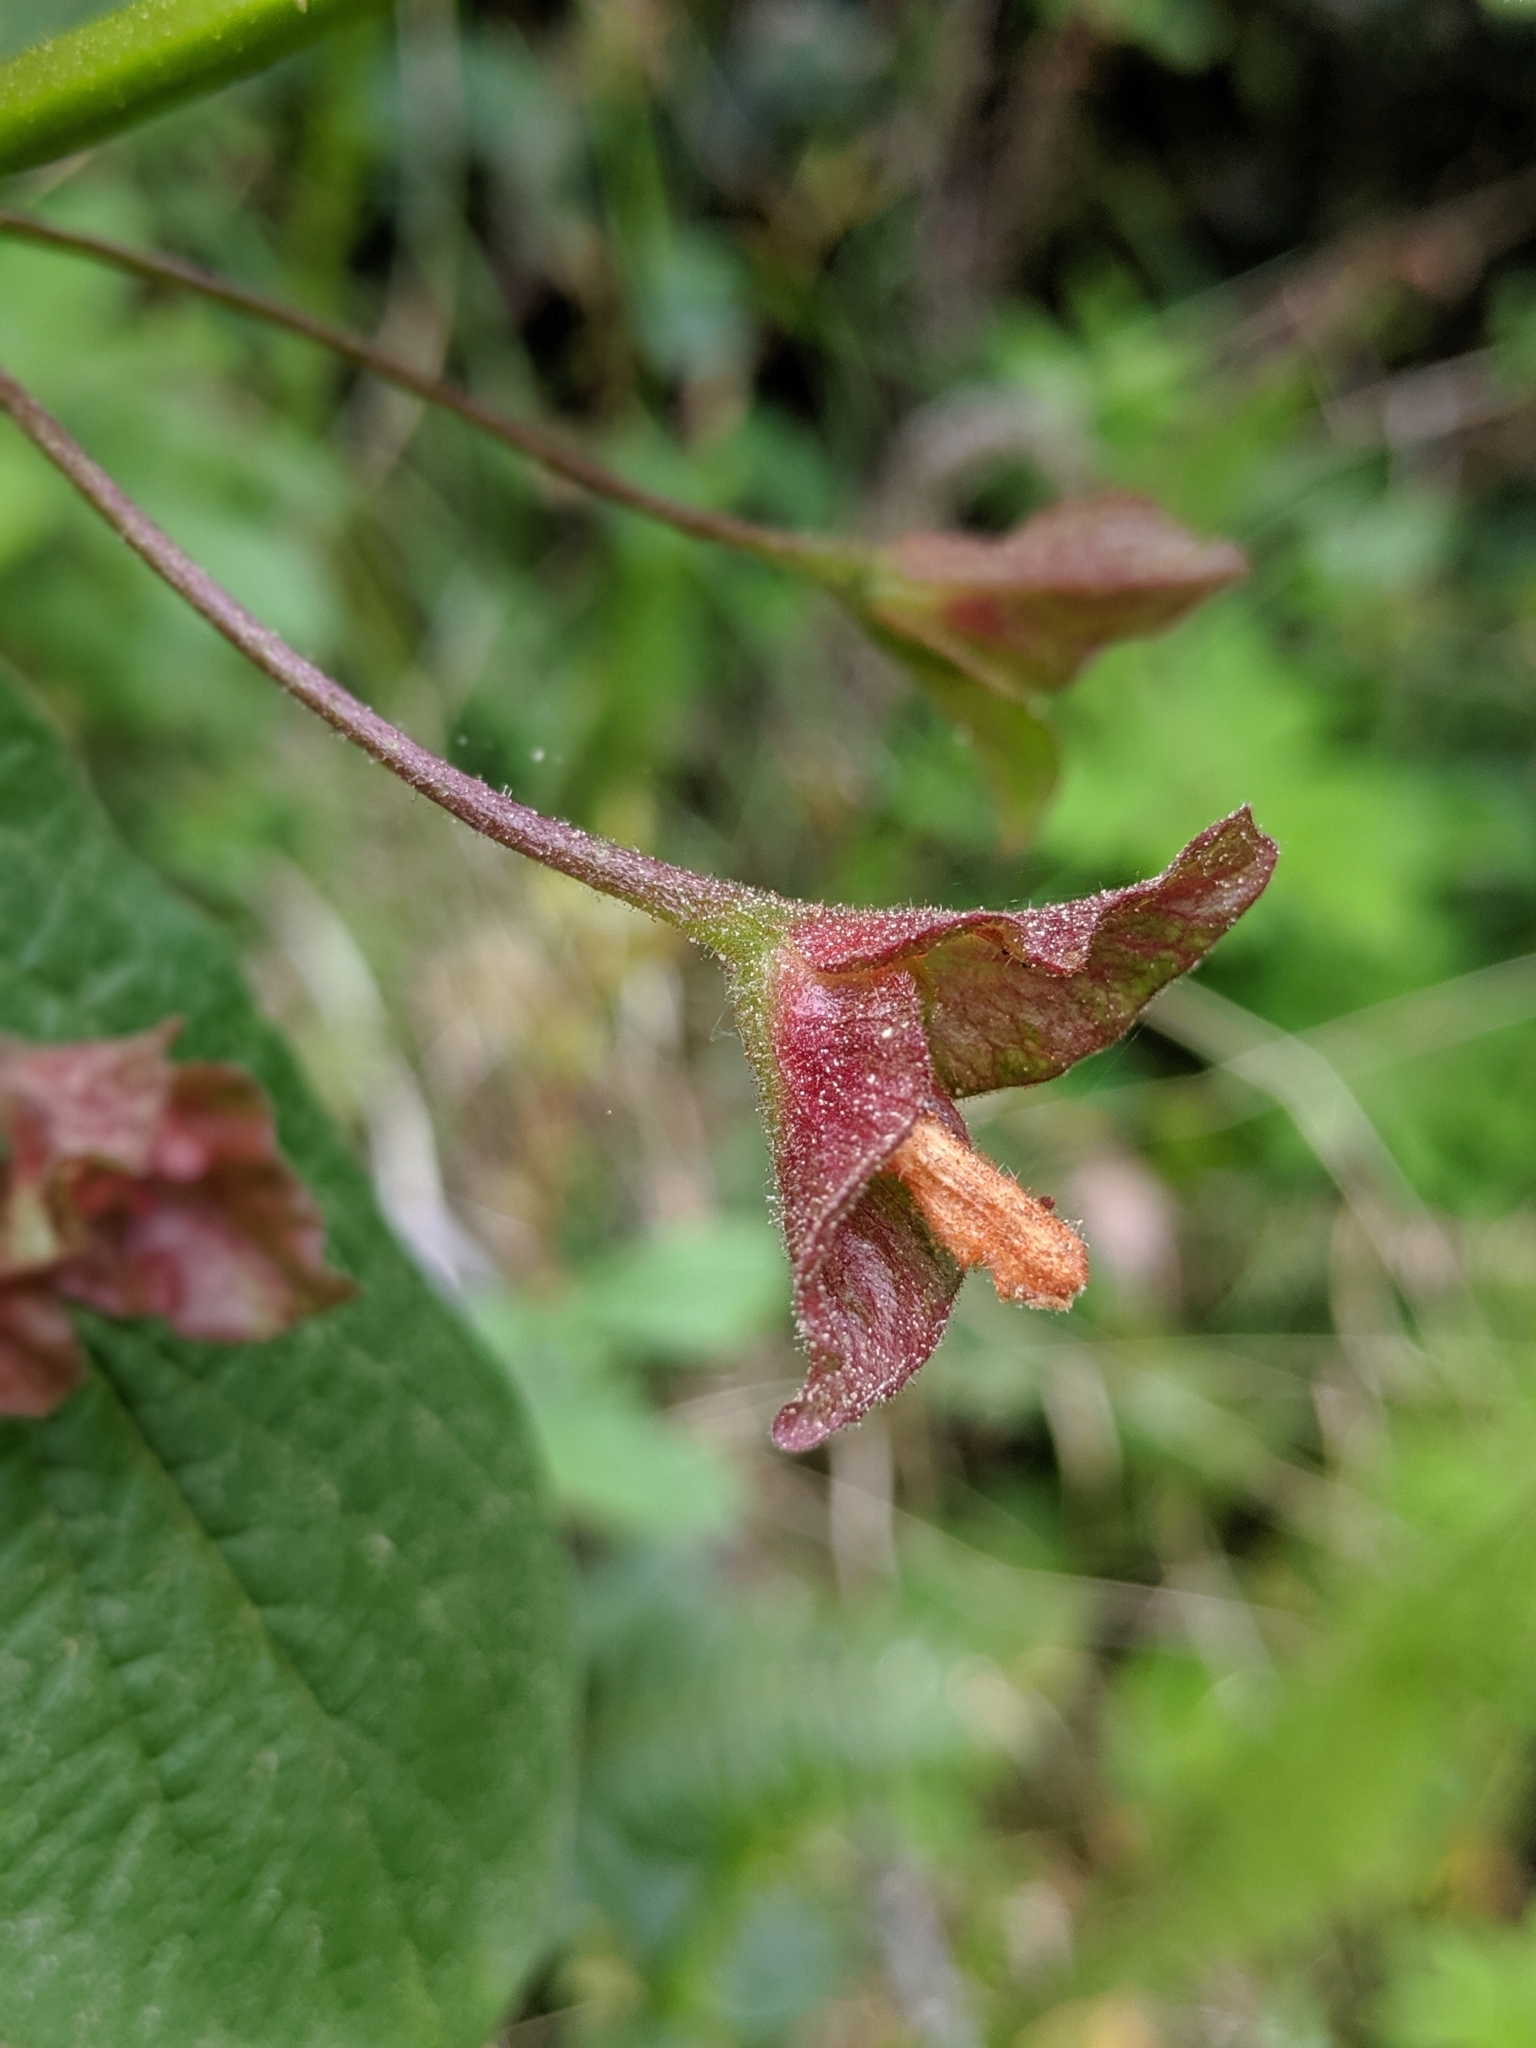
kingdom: Plantae
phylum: Tracheophyta
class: Magnoliopsida
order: Dipsacales
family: Caprifoliaceae
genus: Lonicera
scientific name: Lonicera involucrata
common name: Californian honeysuckle
